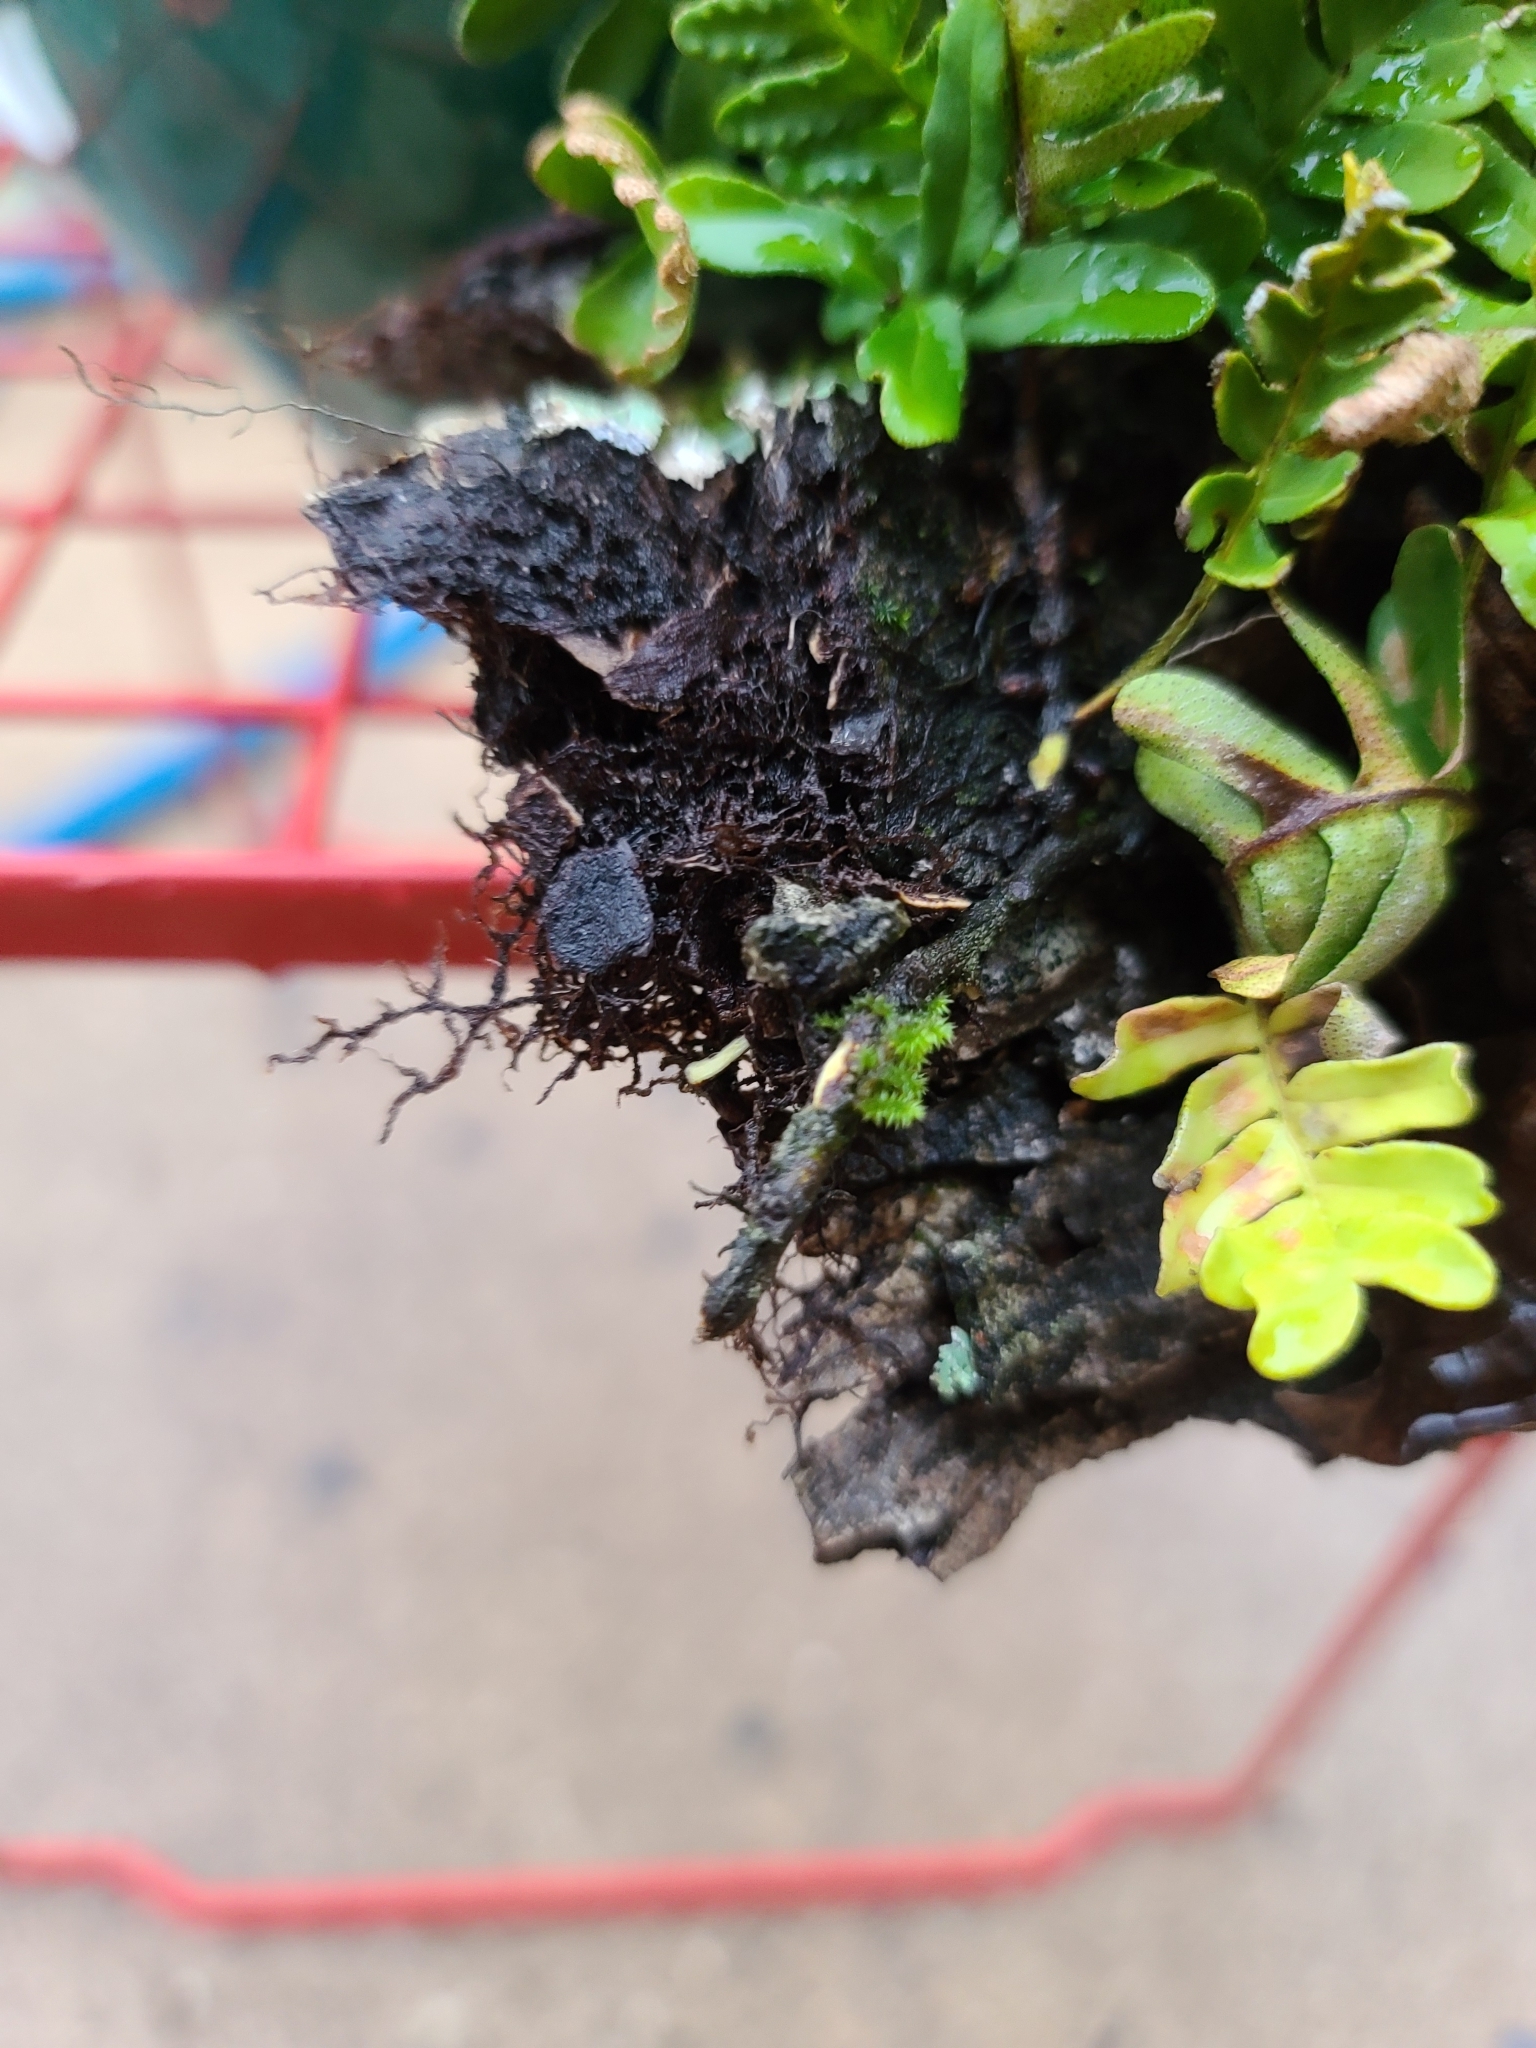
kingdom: Plantae
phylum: Tracheophyta
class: Polypodiopsida
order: Polypodiales
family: Polypodiaceae
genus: Pleopeltis
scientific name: Pleopeltis michauxiana
